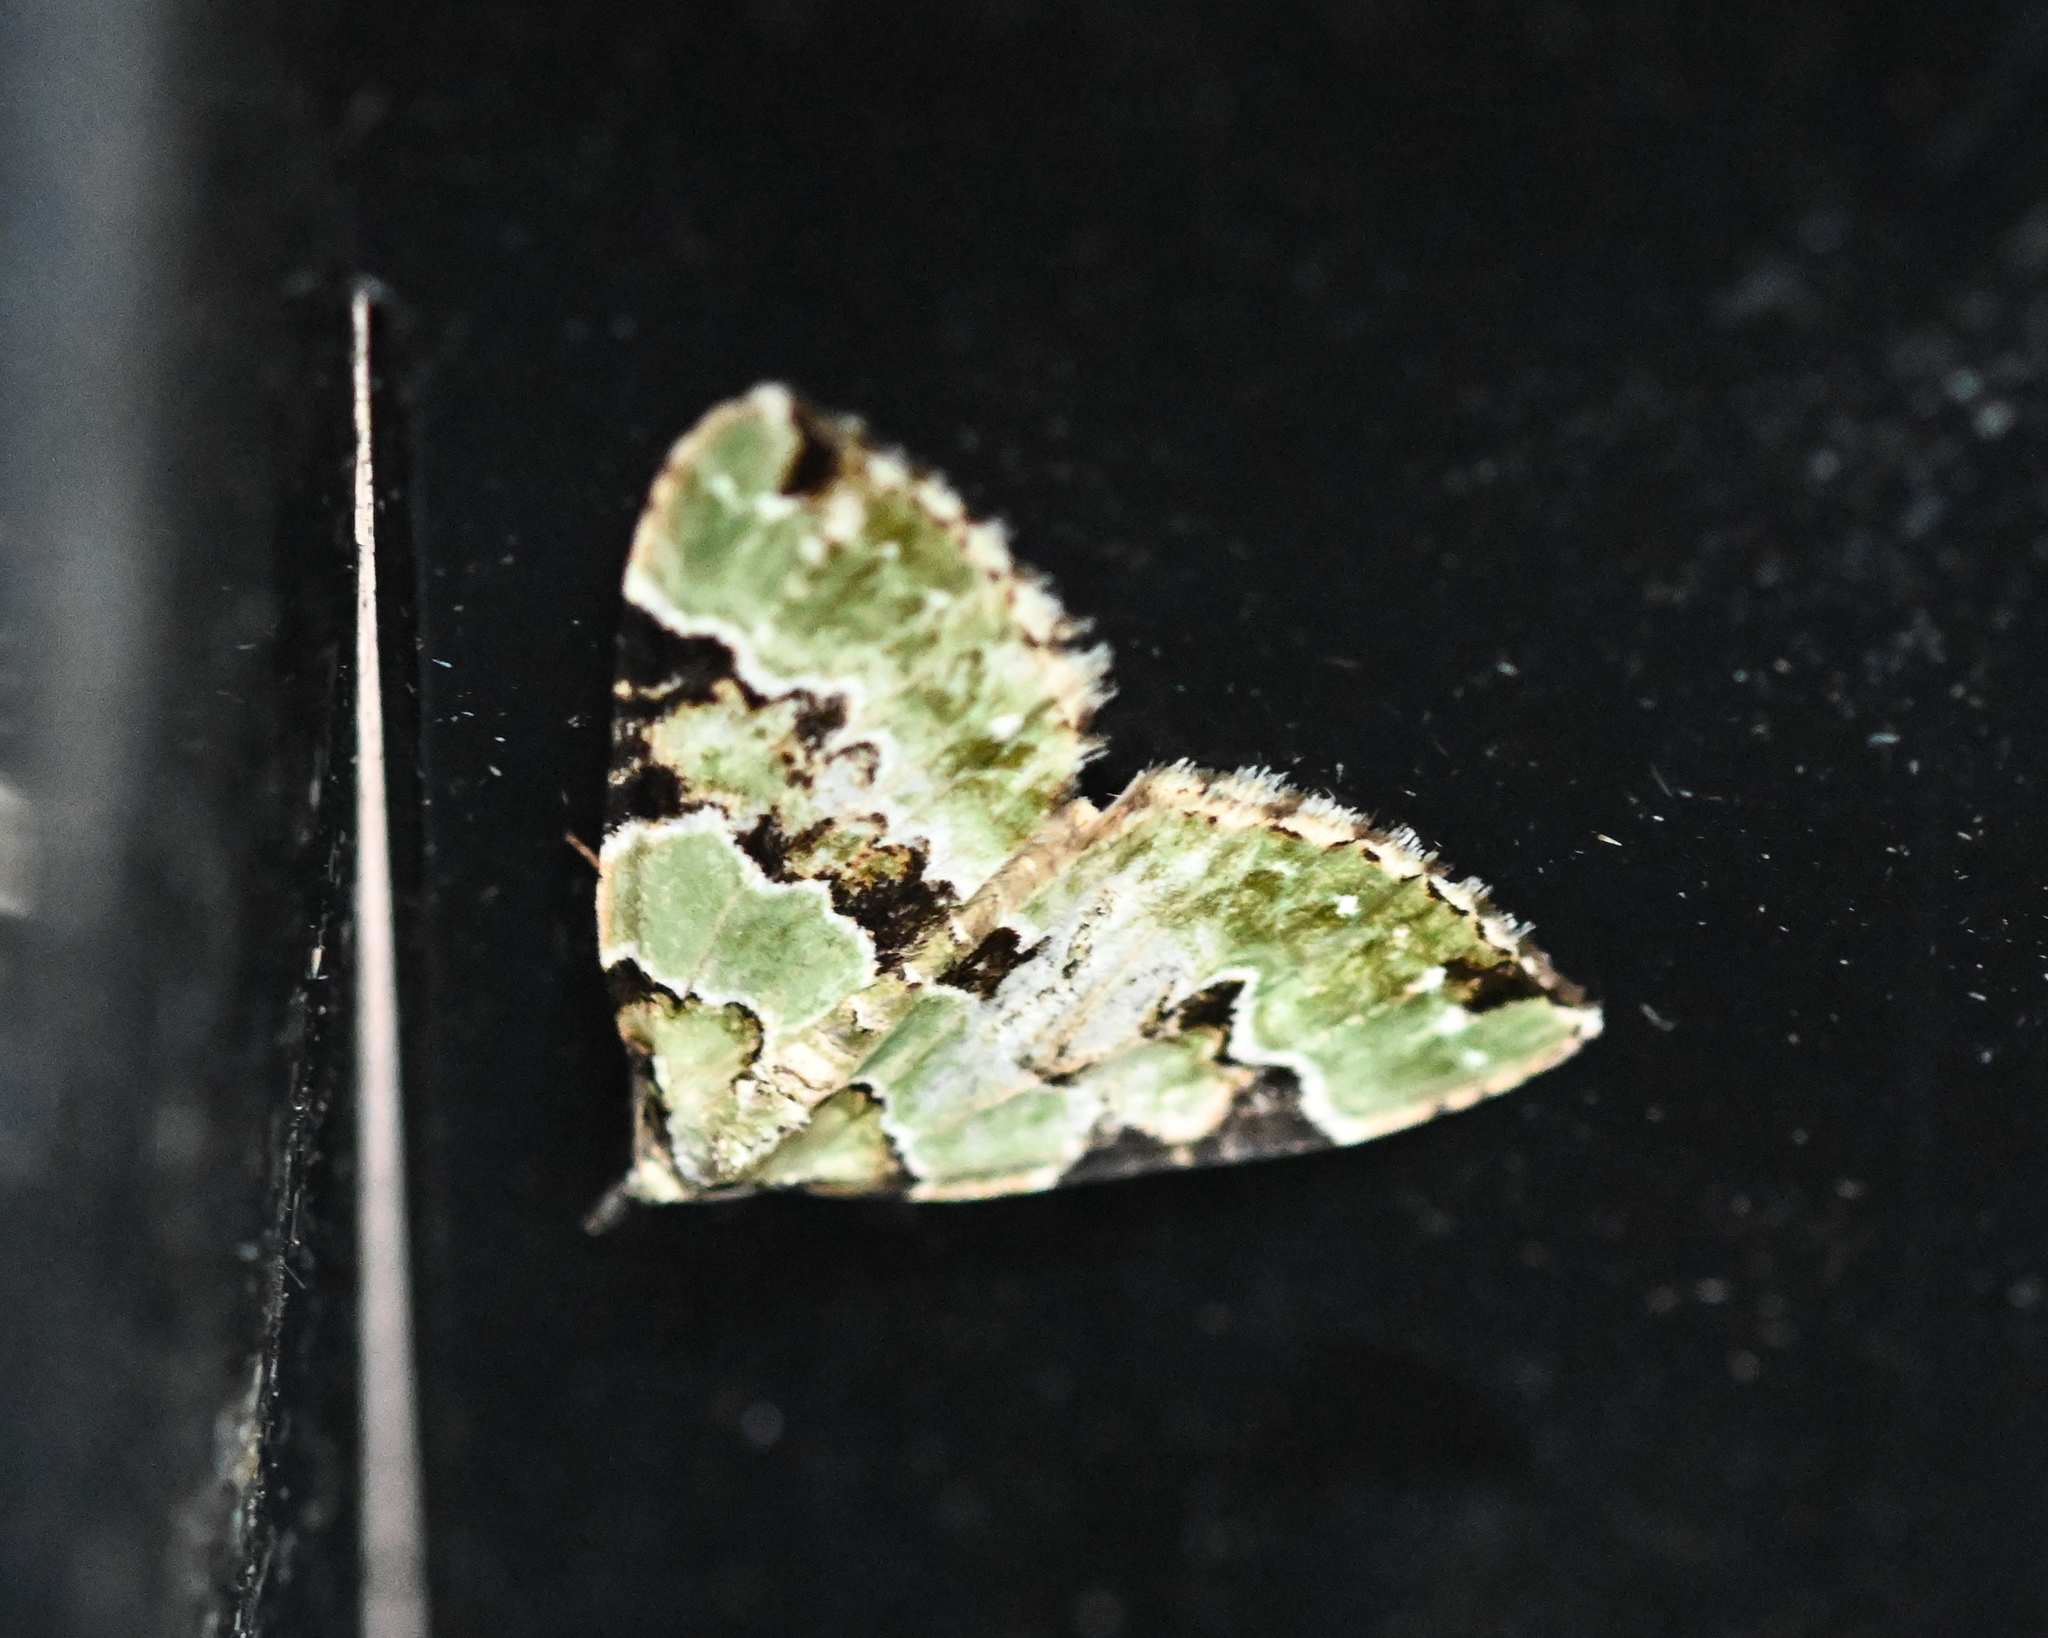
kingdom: Animalia
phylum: Arthropoda
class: Insecta
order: Lepidoptera
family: Geometridae
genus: Colostygia
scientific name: Colostygia pectinataria
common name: Green carpet
